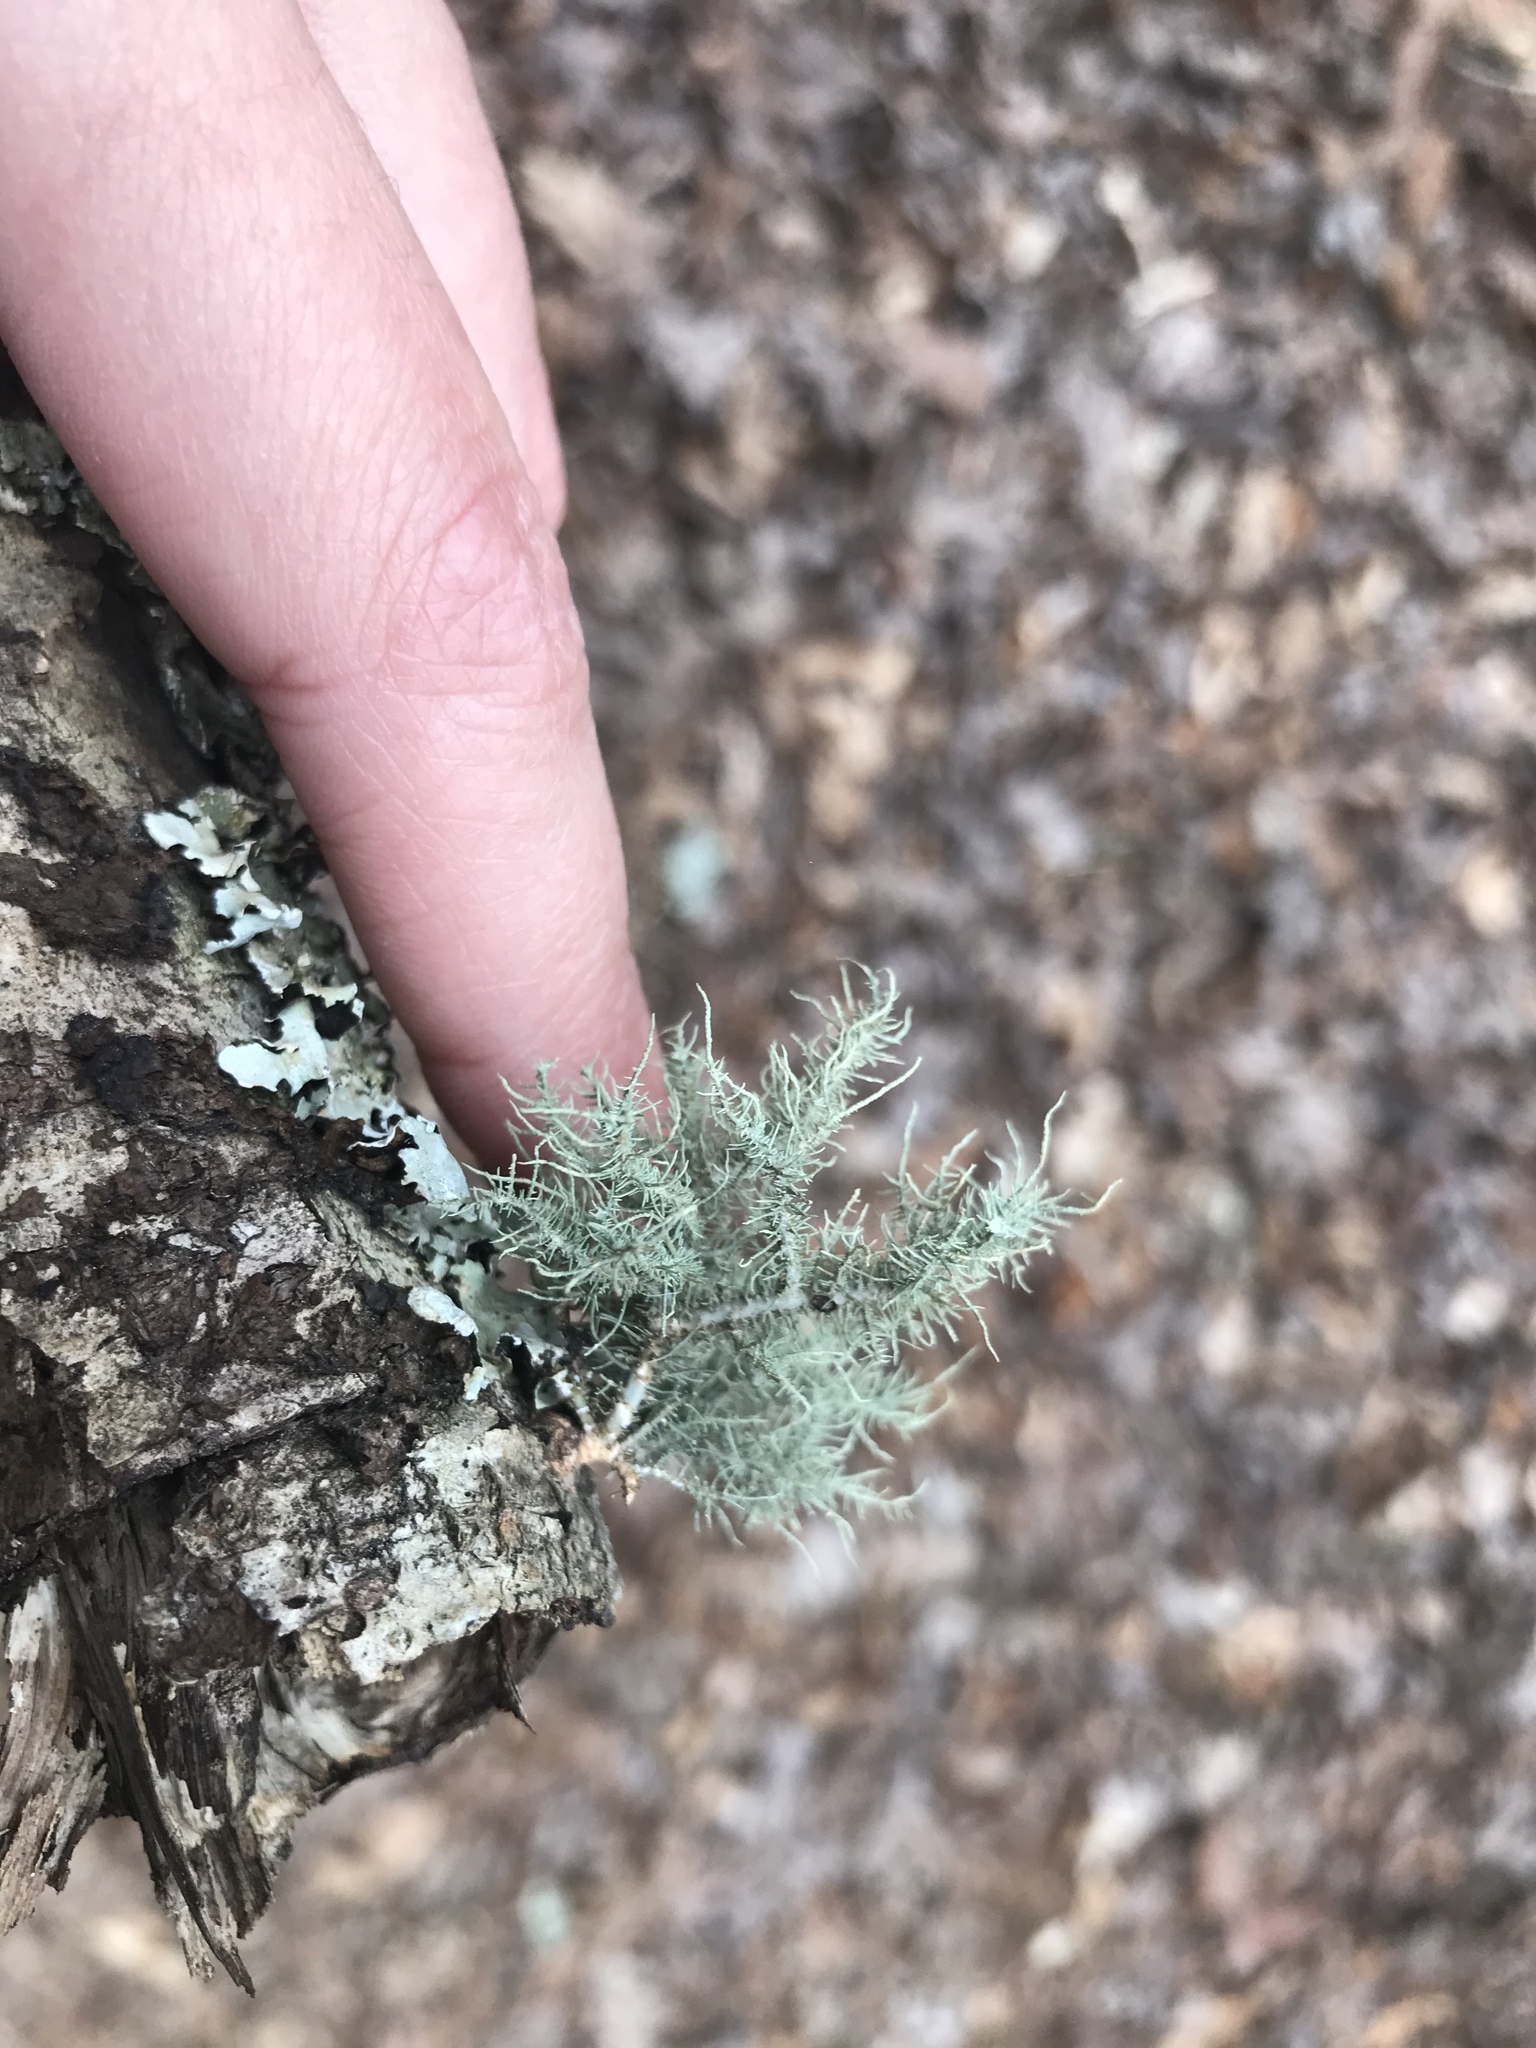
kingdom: Fungi
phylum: Ascomycota
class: Lecanoromycetes
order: Lecanorales
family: Parmeliaceae
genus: Usnea
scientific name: Usnea hirta
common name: Bristly beard lichen
